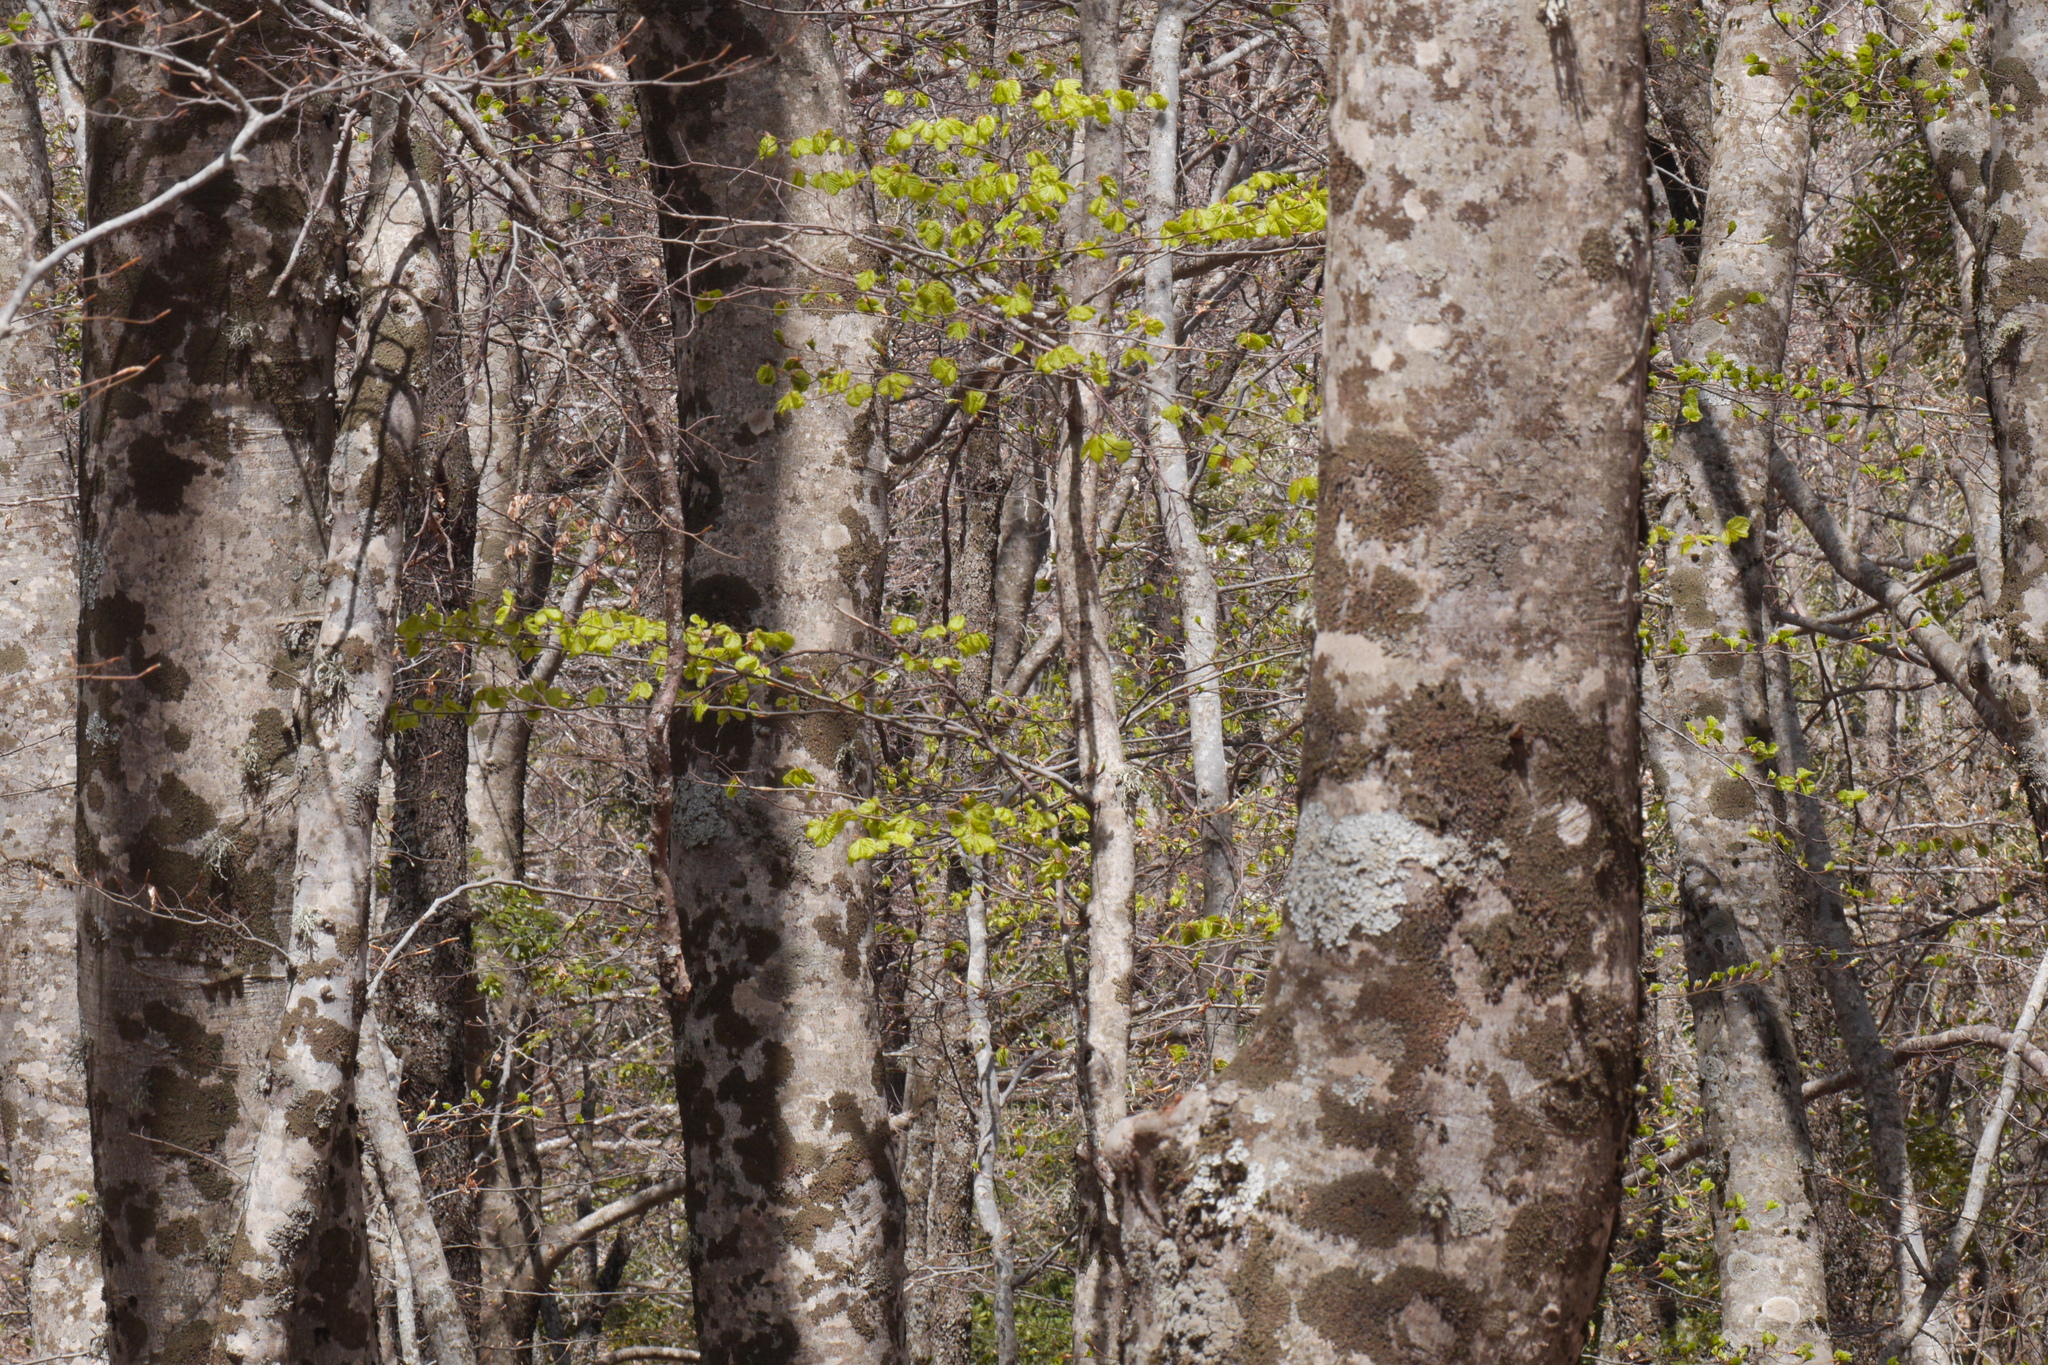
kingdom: Plantae
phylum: Tracheophyta
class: Magnoliopsida
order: Fagales
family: Fagaceae
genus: Fagus
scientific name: Fagus sylvatica
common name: Beech
